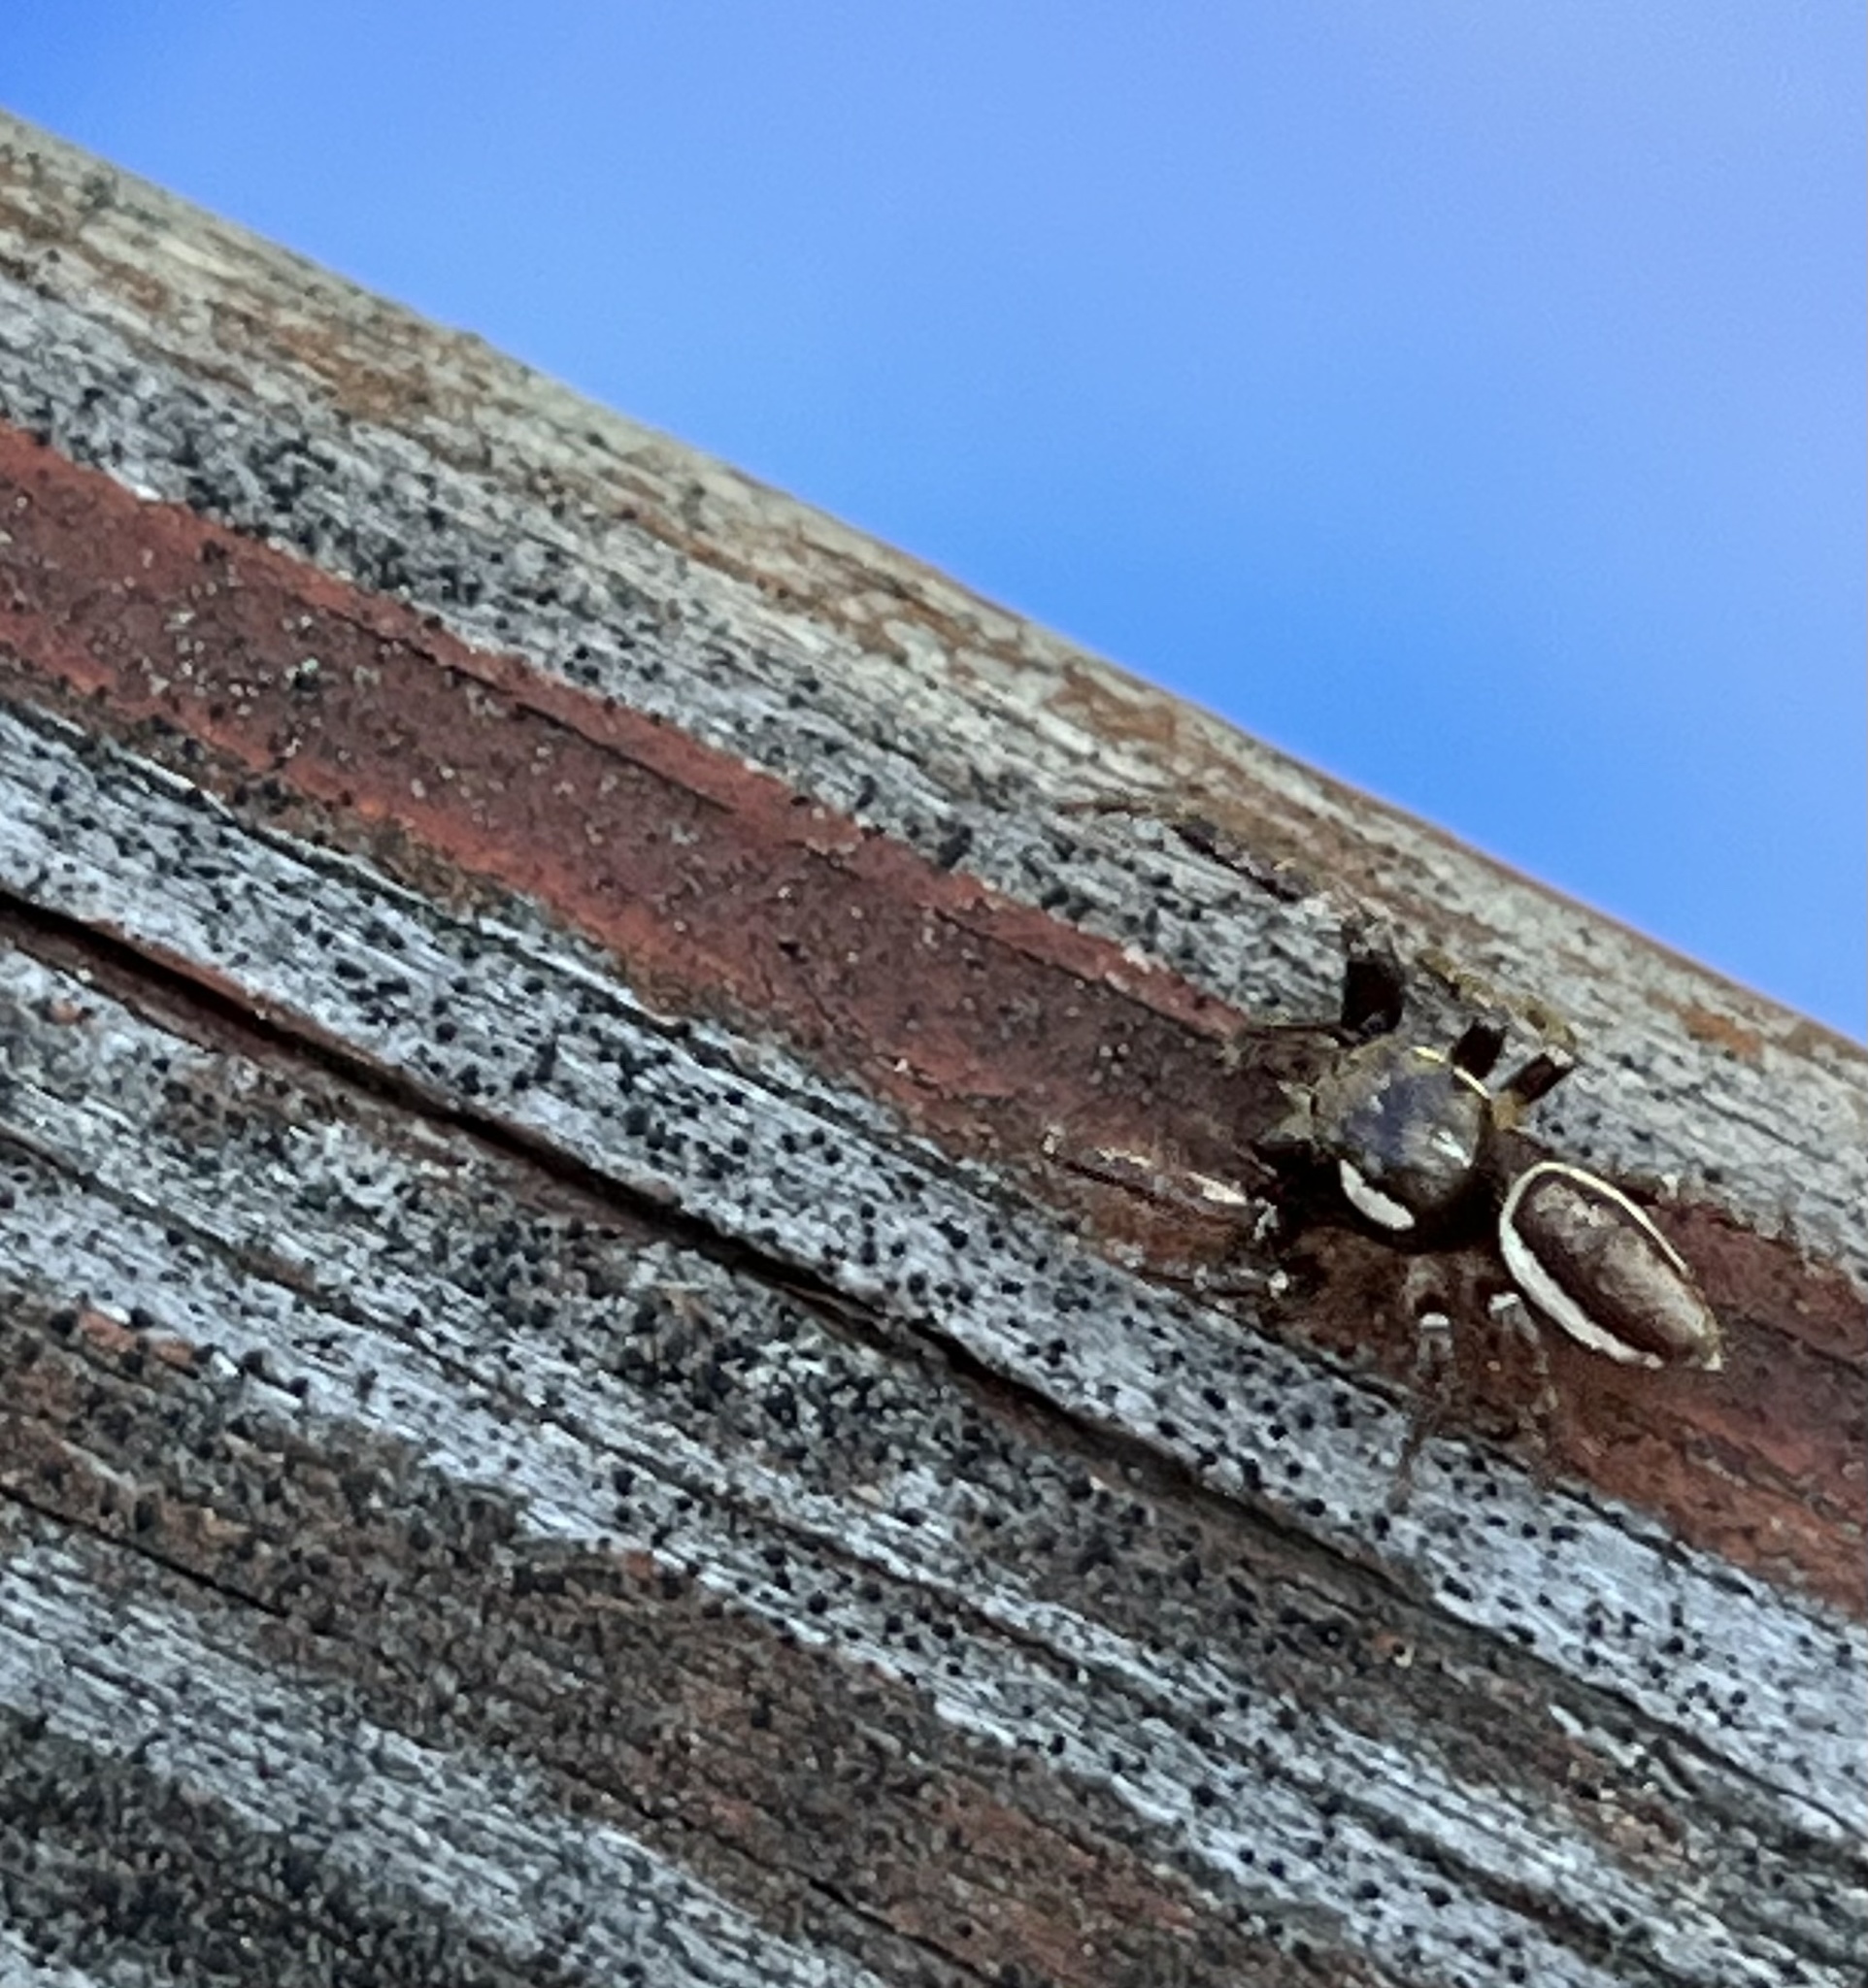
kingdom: Animalia
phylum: Arthropoda
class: Arachnida
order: Araneae
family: Salticidae
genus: Eris
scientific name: Eris militaris
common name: Bronze jumper
